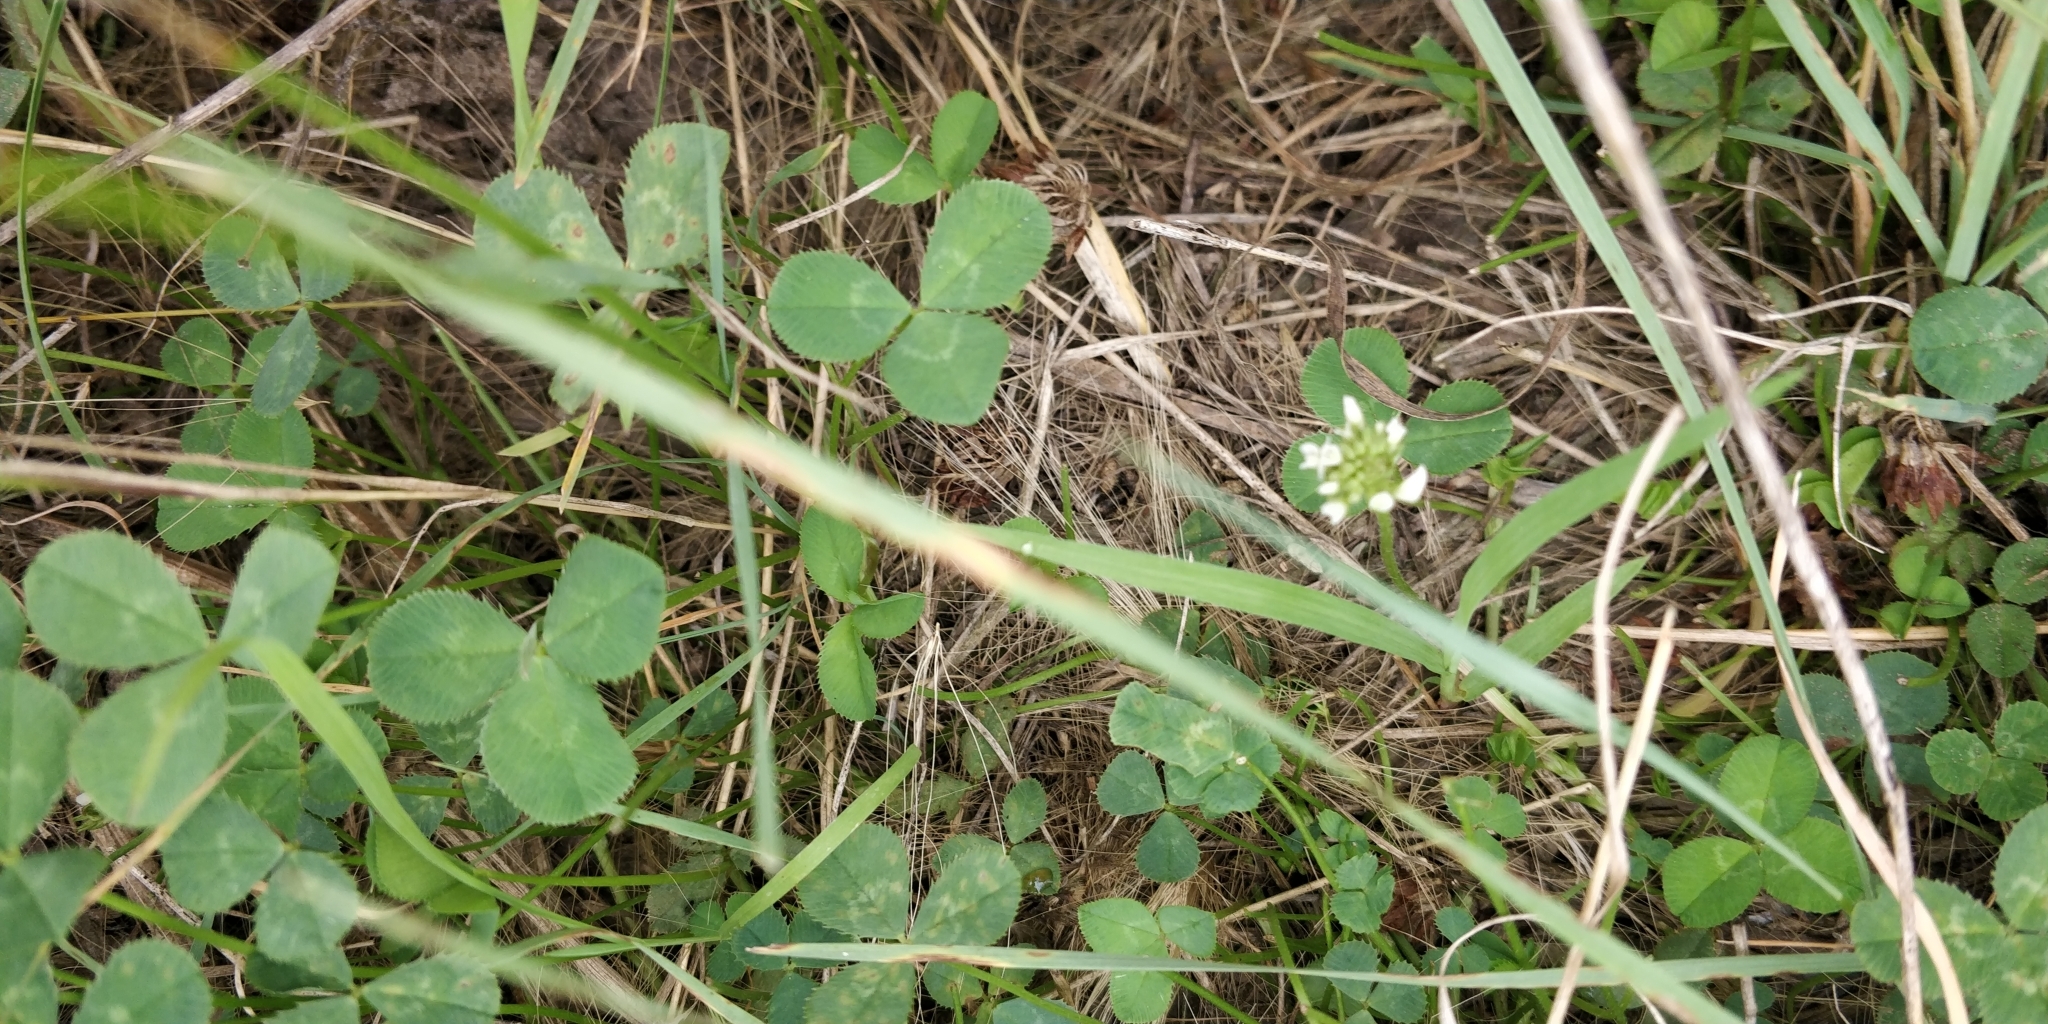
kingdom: Plantae
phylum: Tracheophyta
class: Magnoliopsida
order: Fabales
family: Fabaceae
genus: Trifolium
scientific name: Trifolium repens
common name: White clover
